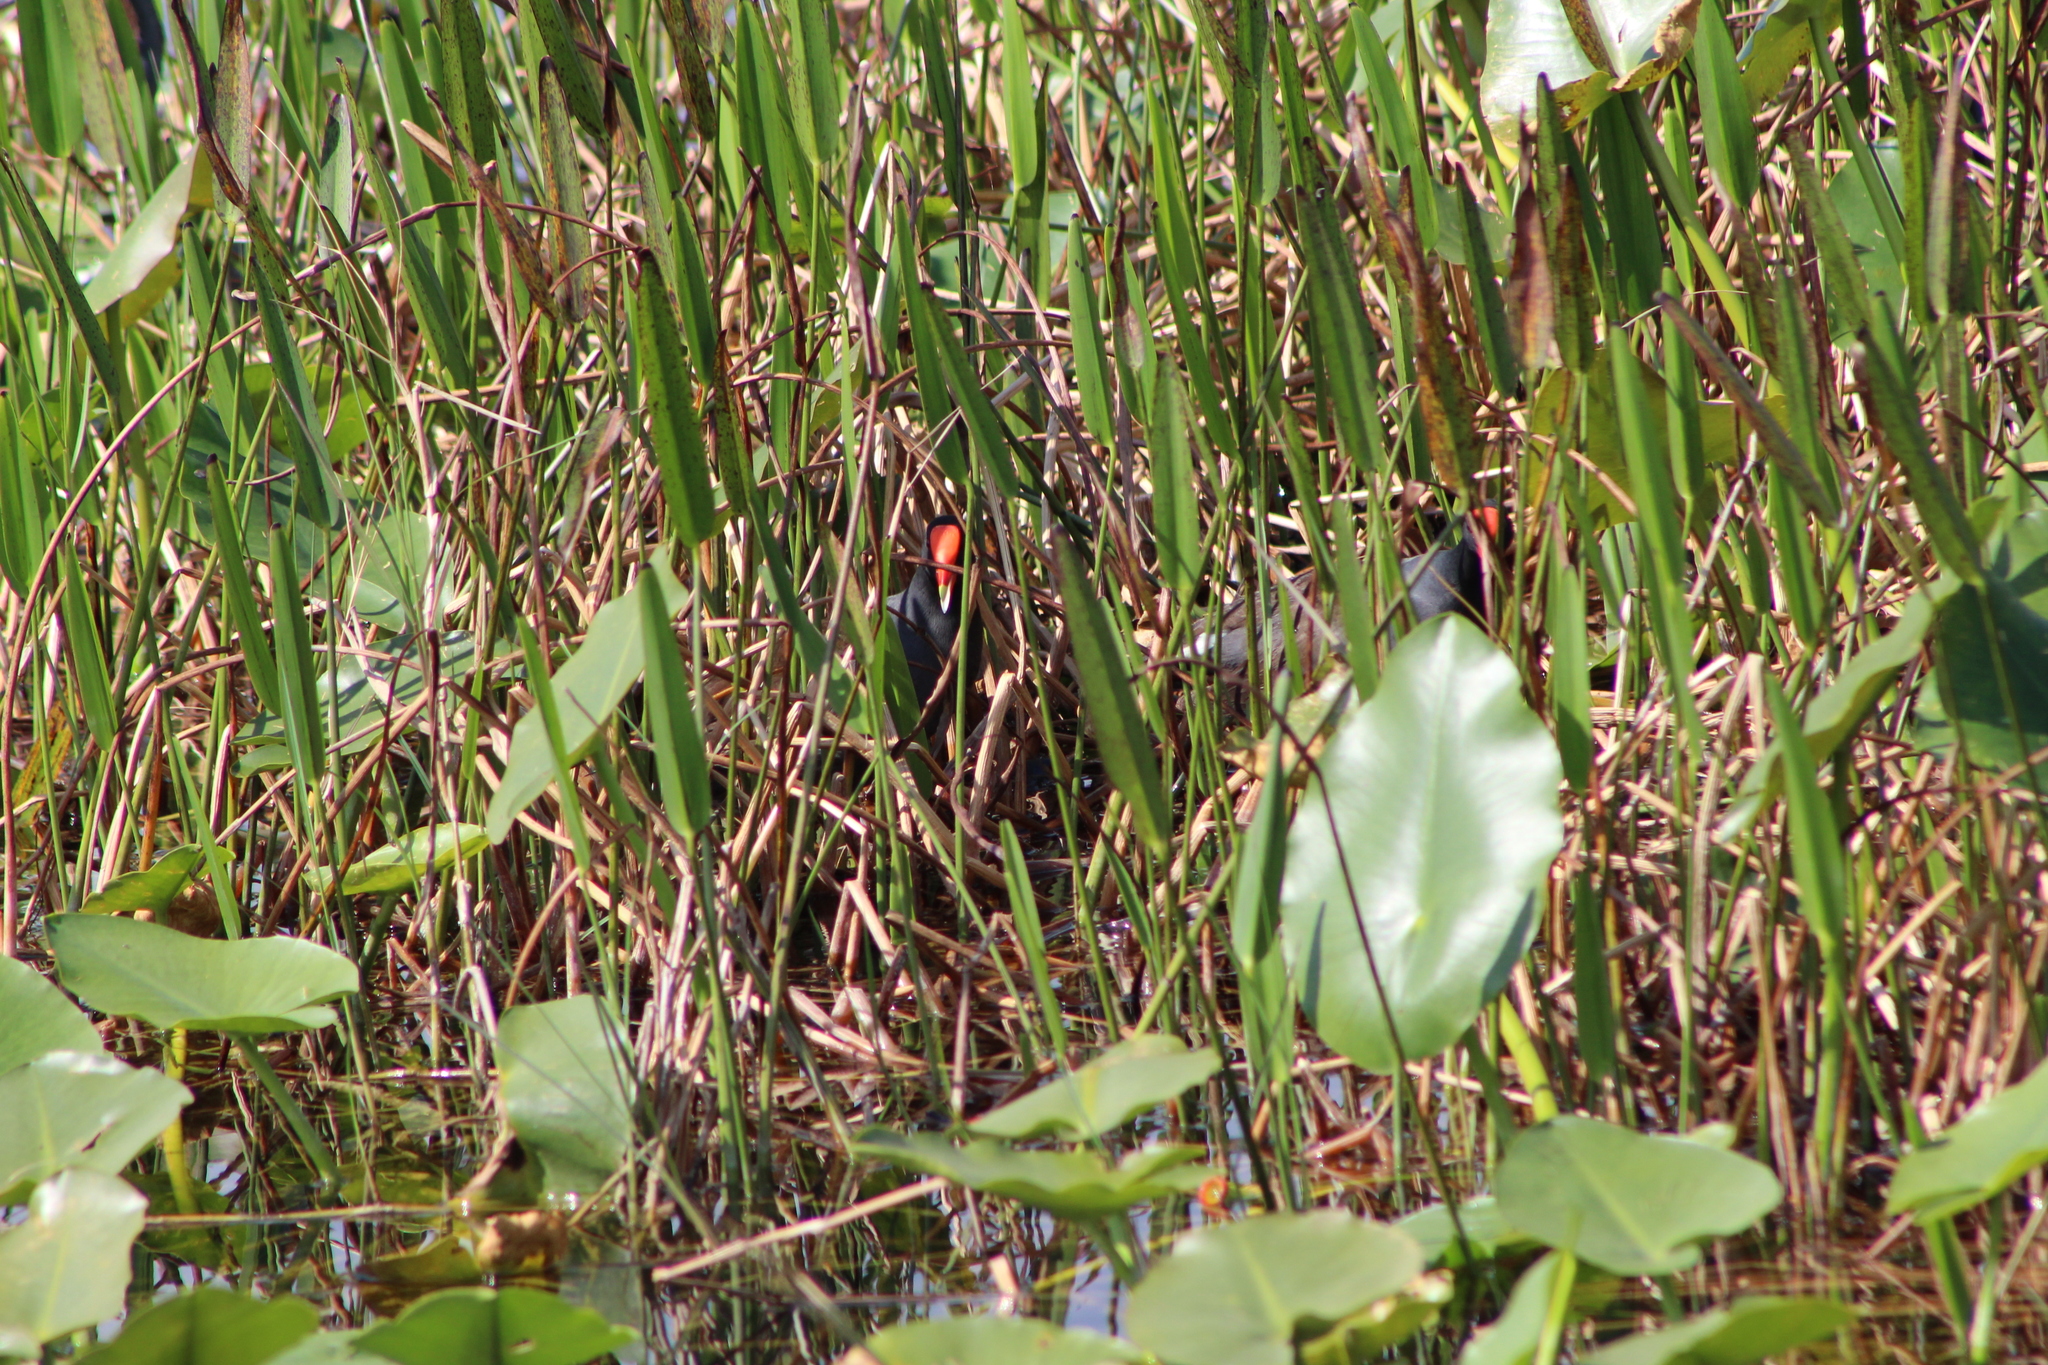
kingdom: Animalia
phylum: Chordata
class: Aves
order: Gruiformes
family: Rallidae
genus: Gallinula
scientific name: Gallinula chloropus
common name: Common moorhen
